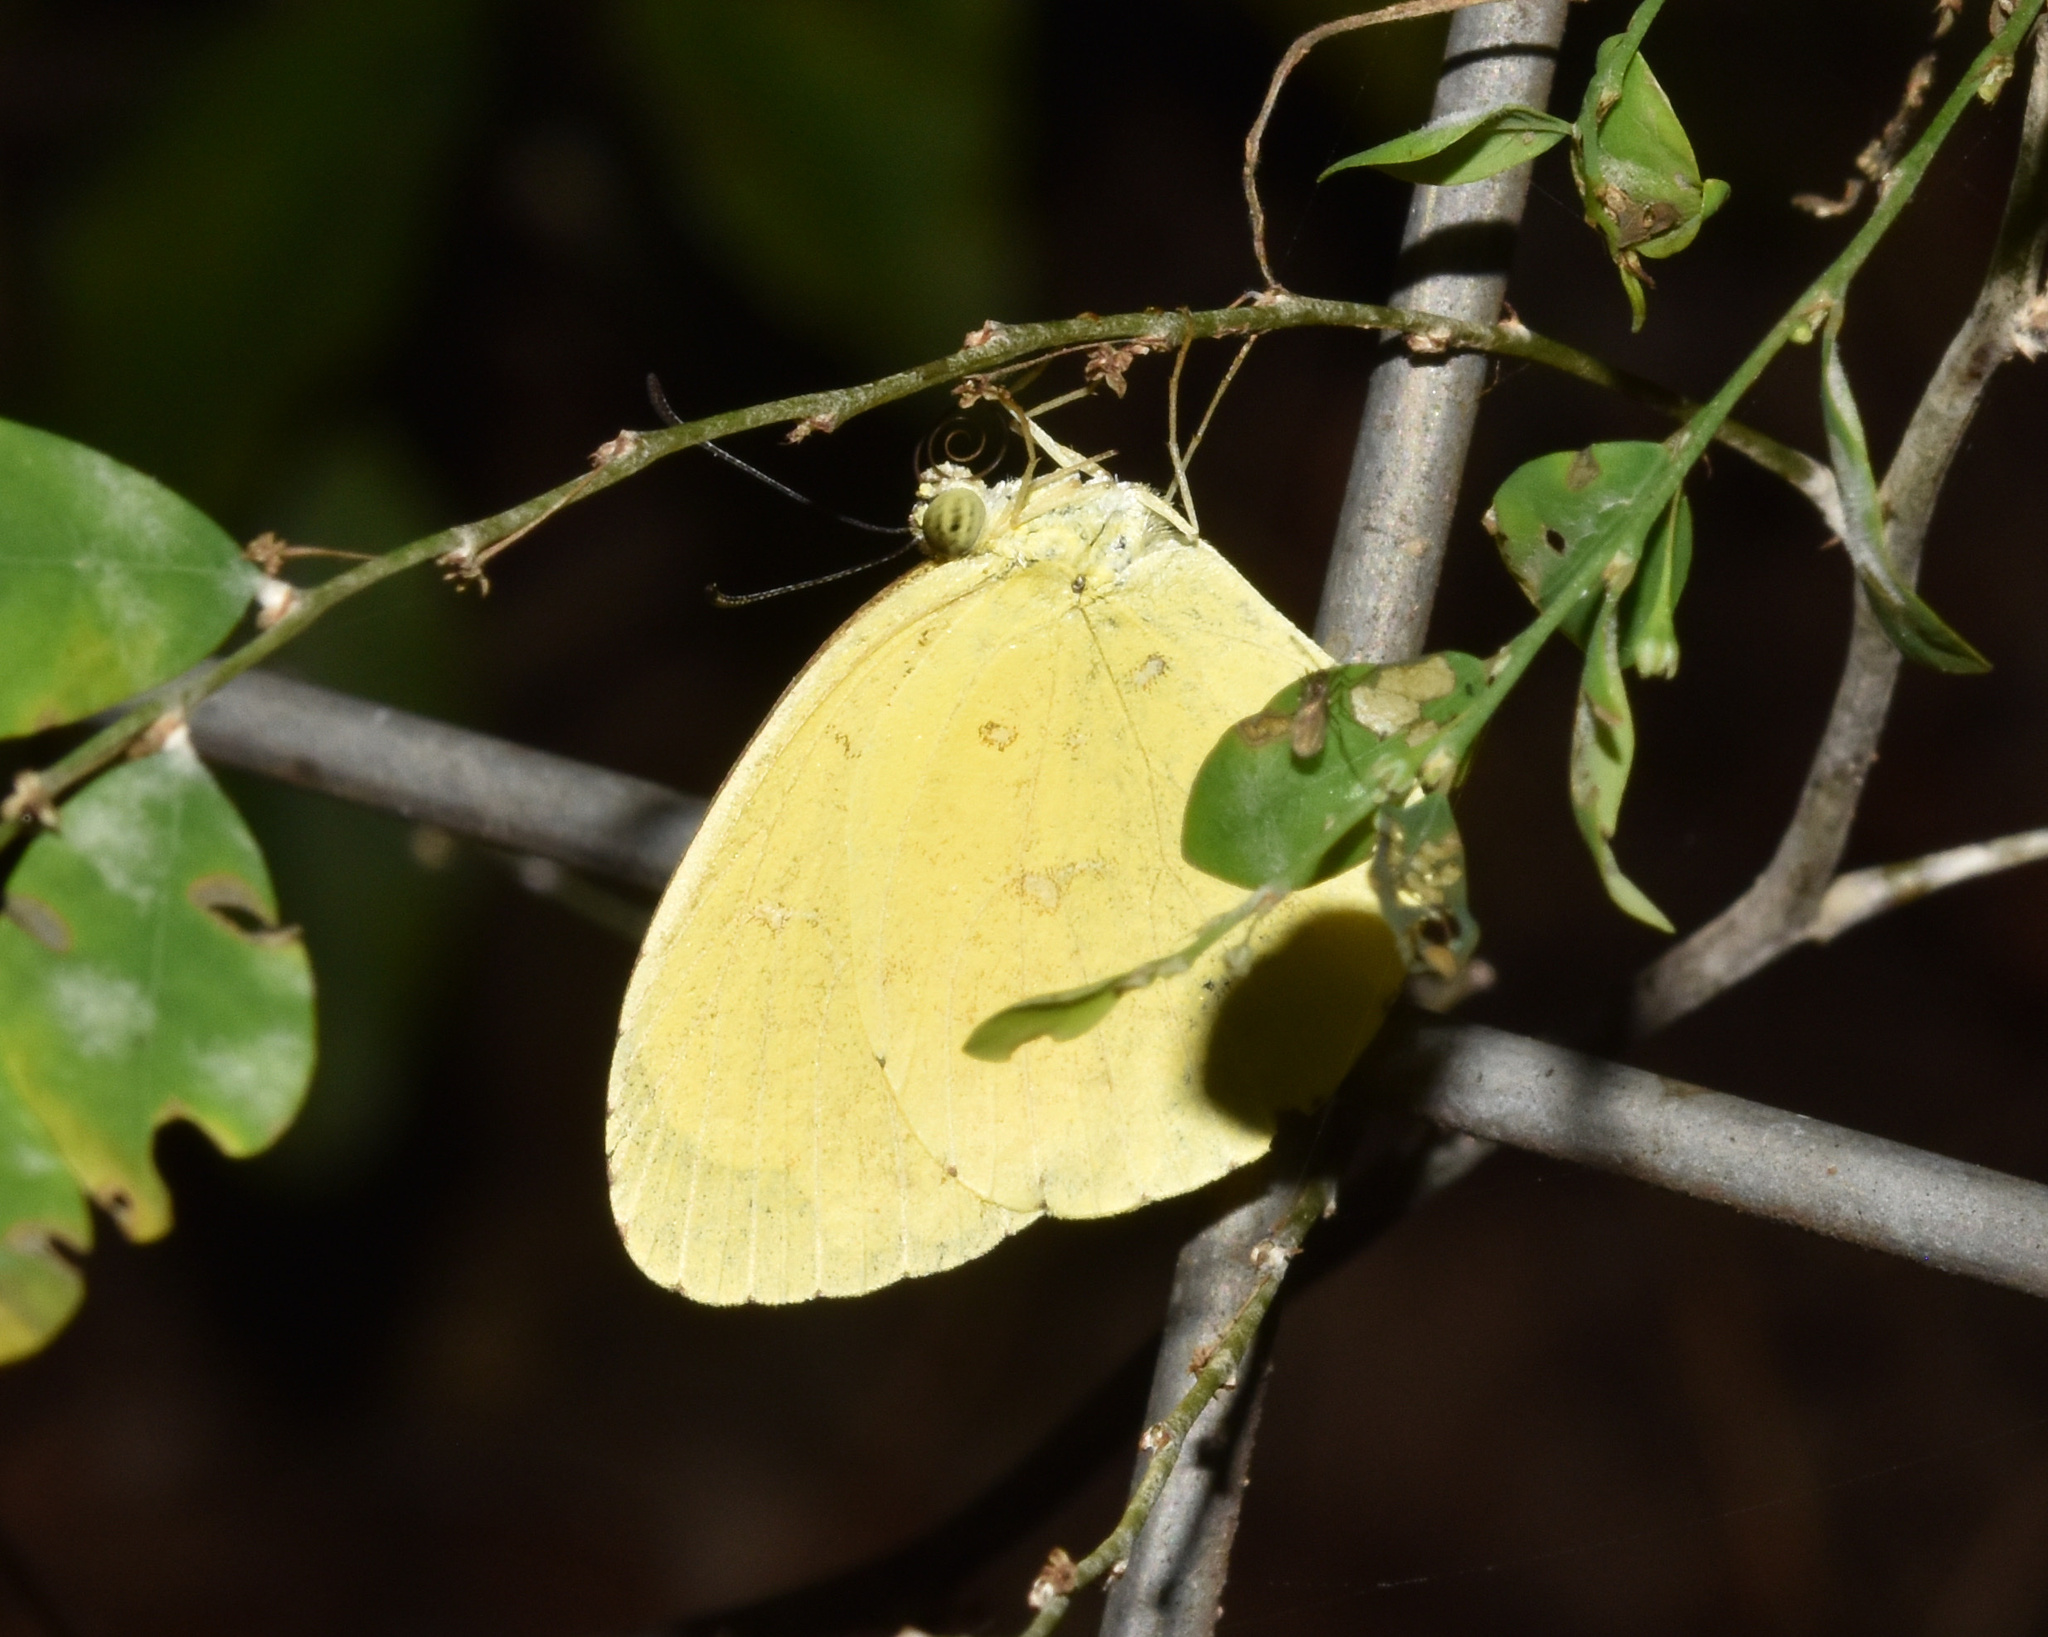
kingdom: Animalia
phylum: Arthropoda
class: Insecta
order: Lepidoptera
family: Pieridae
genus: Eurema
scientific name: Eurema floricola
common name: Malagasy grass yellow
